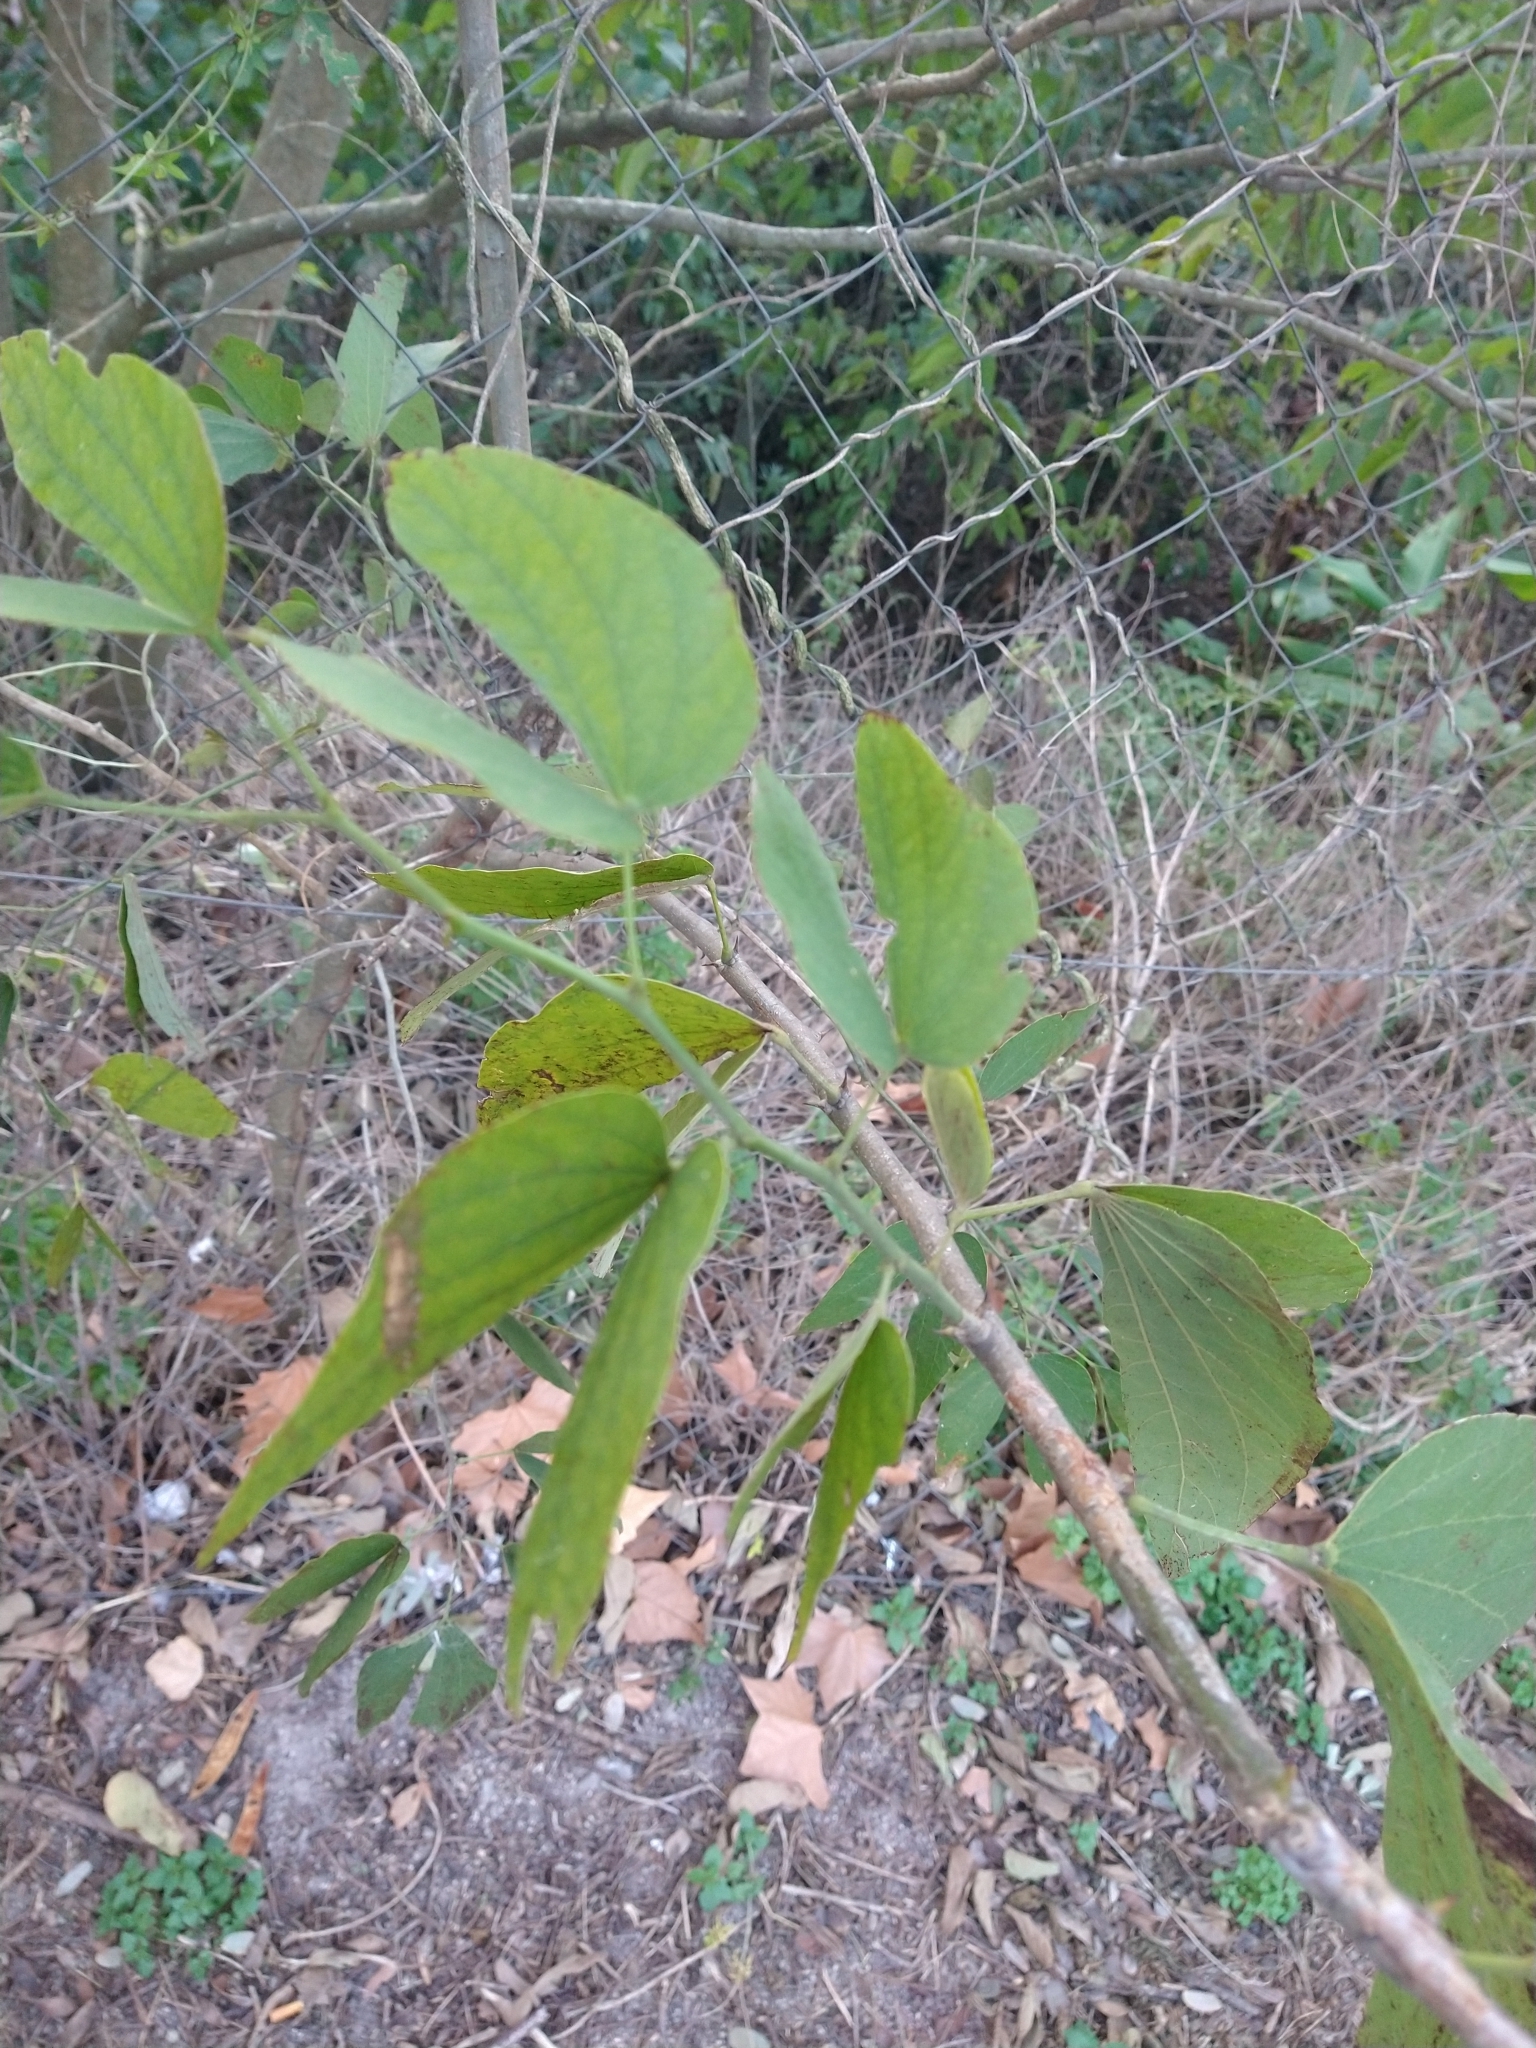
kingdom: Plantae
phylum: Tracheophyta
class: Magnoliopsida
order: Fabales
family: Fabaceae
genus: Bauhinia
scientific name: Bauhinia forficata
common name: Orchid tree
